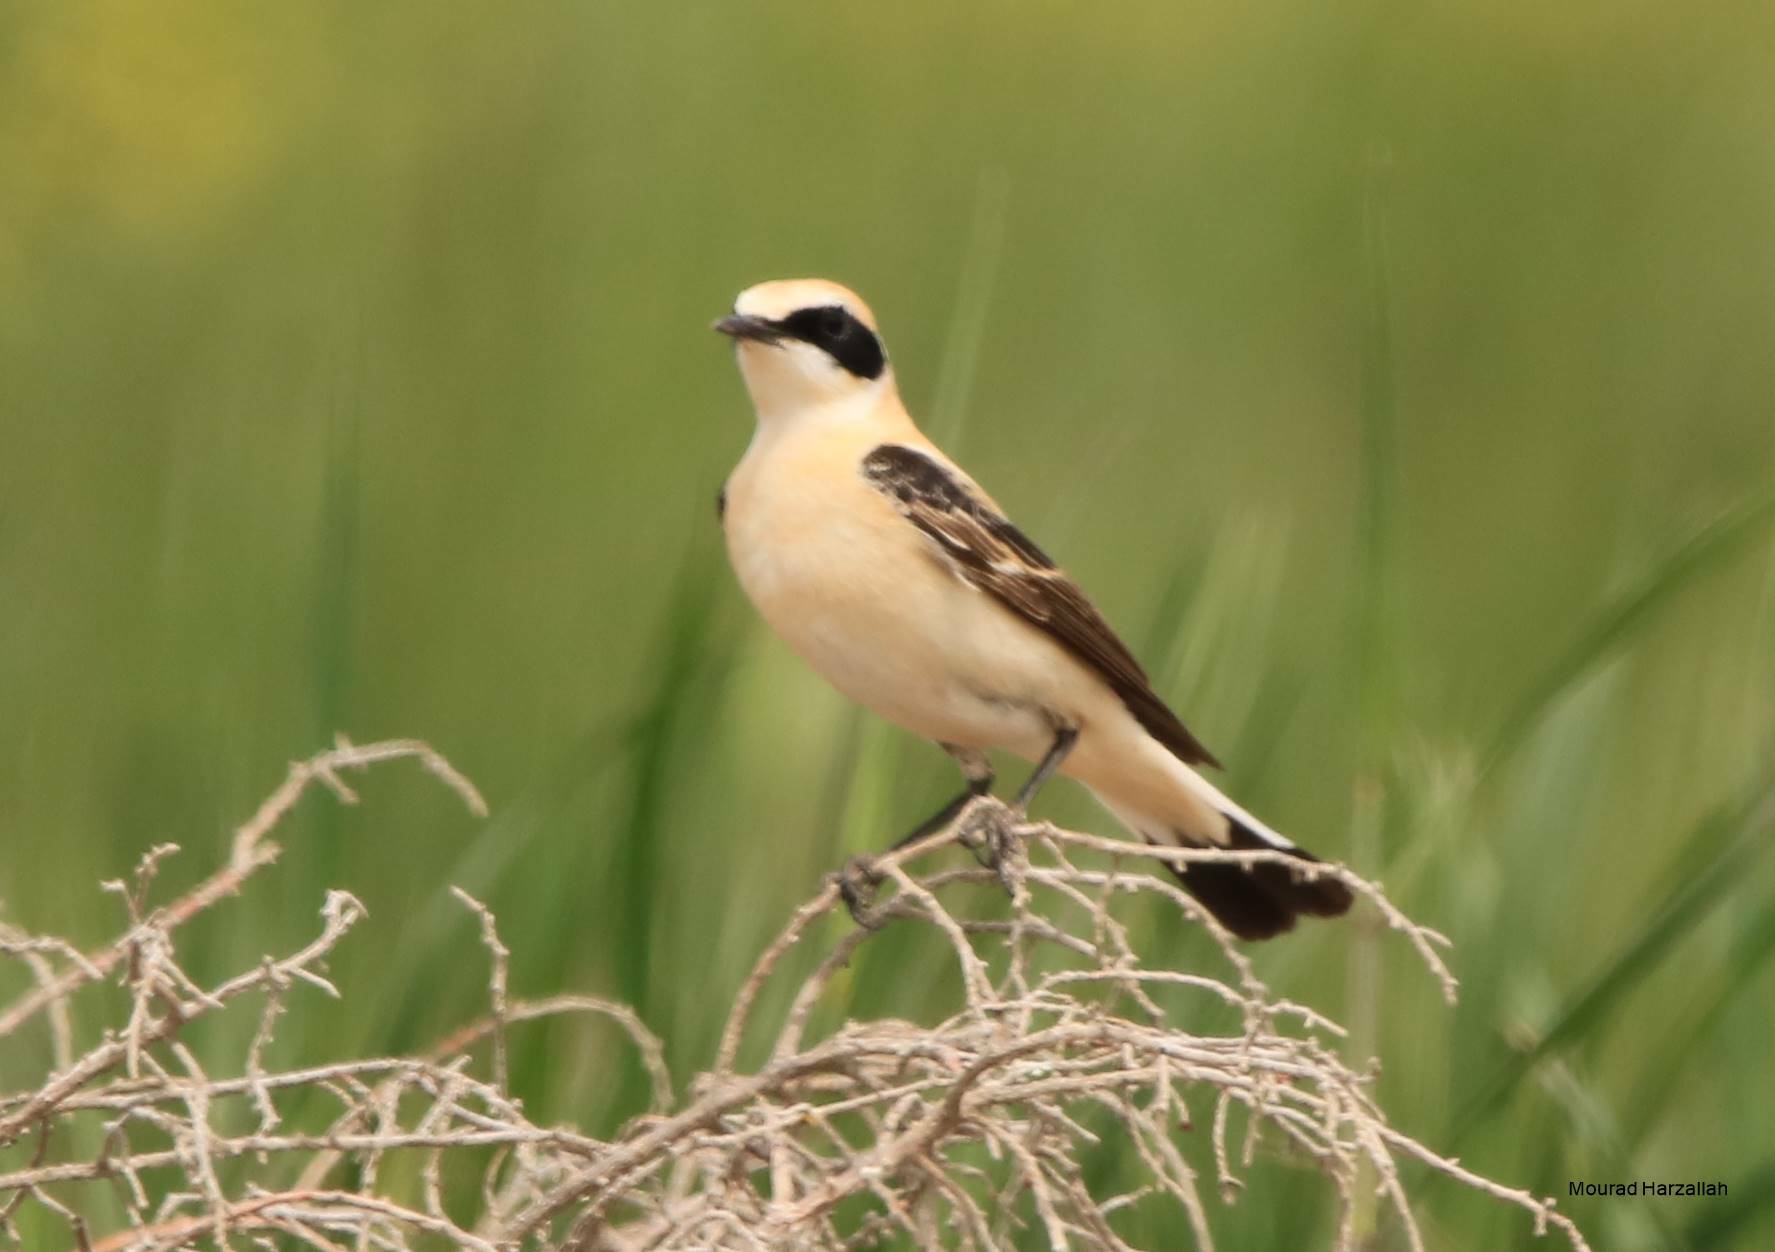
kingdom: Animalia
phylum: Chordata
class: Aves
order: Passeriformes
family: Muscicapidae
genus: Oenanthe
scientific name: Oenanthe hispanica
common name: Black-eared wheatear
